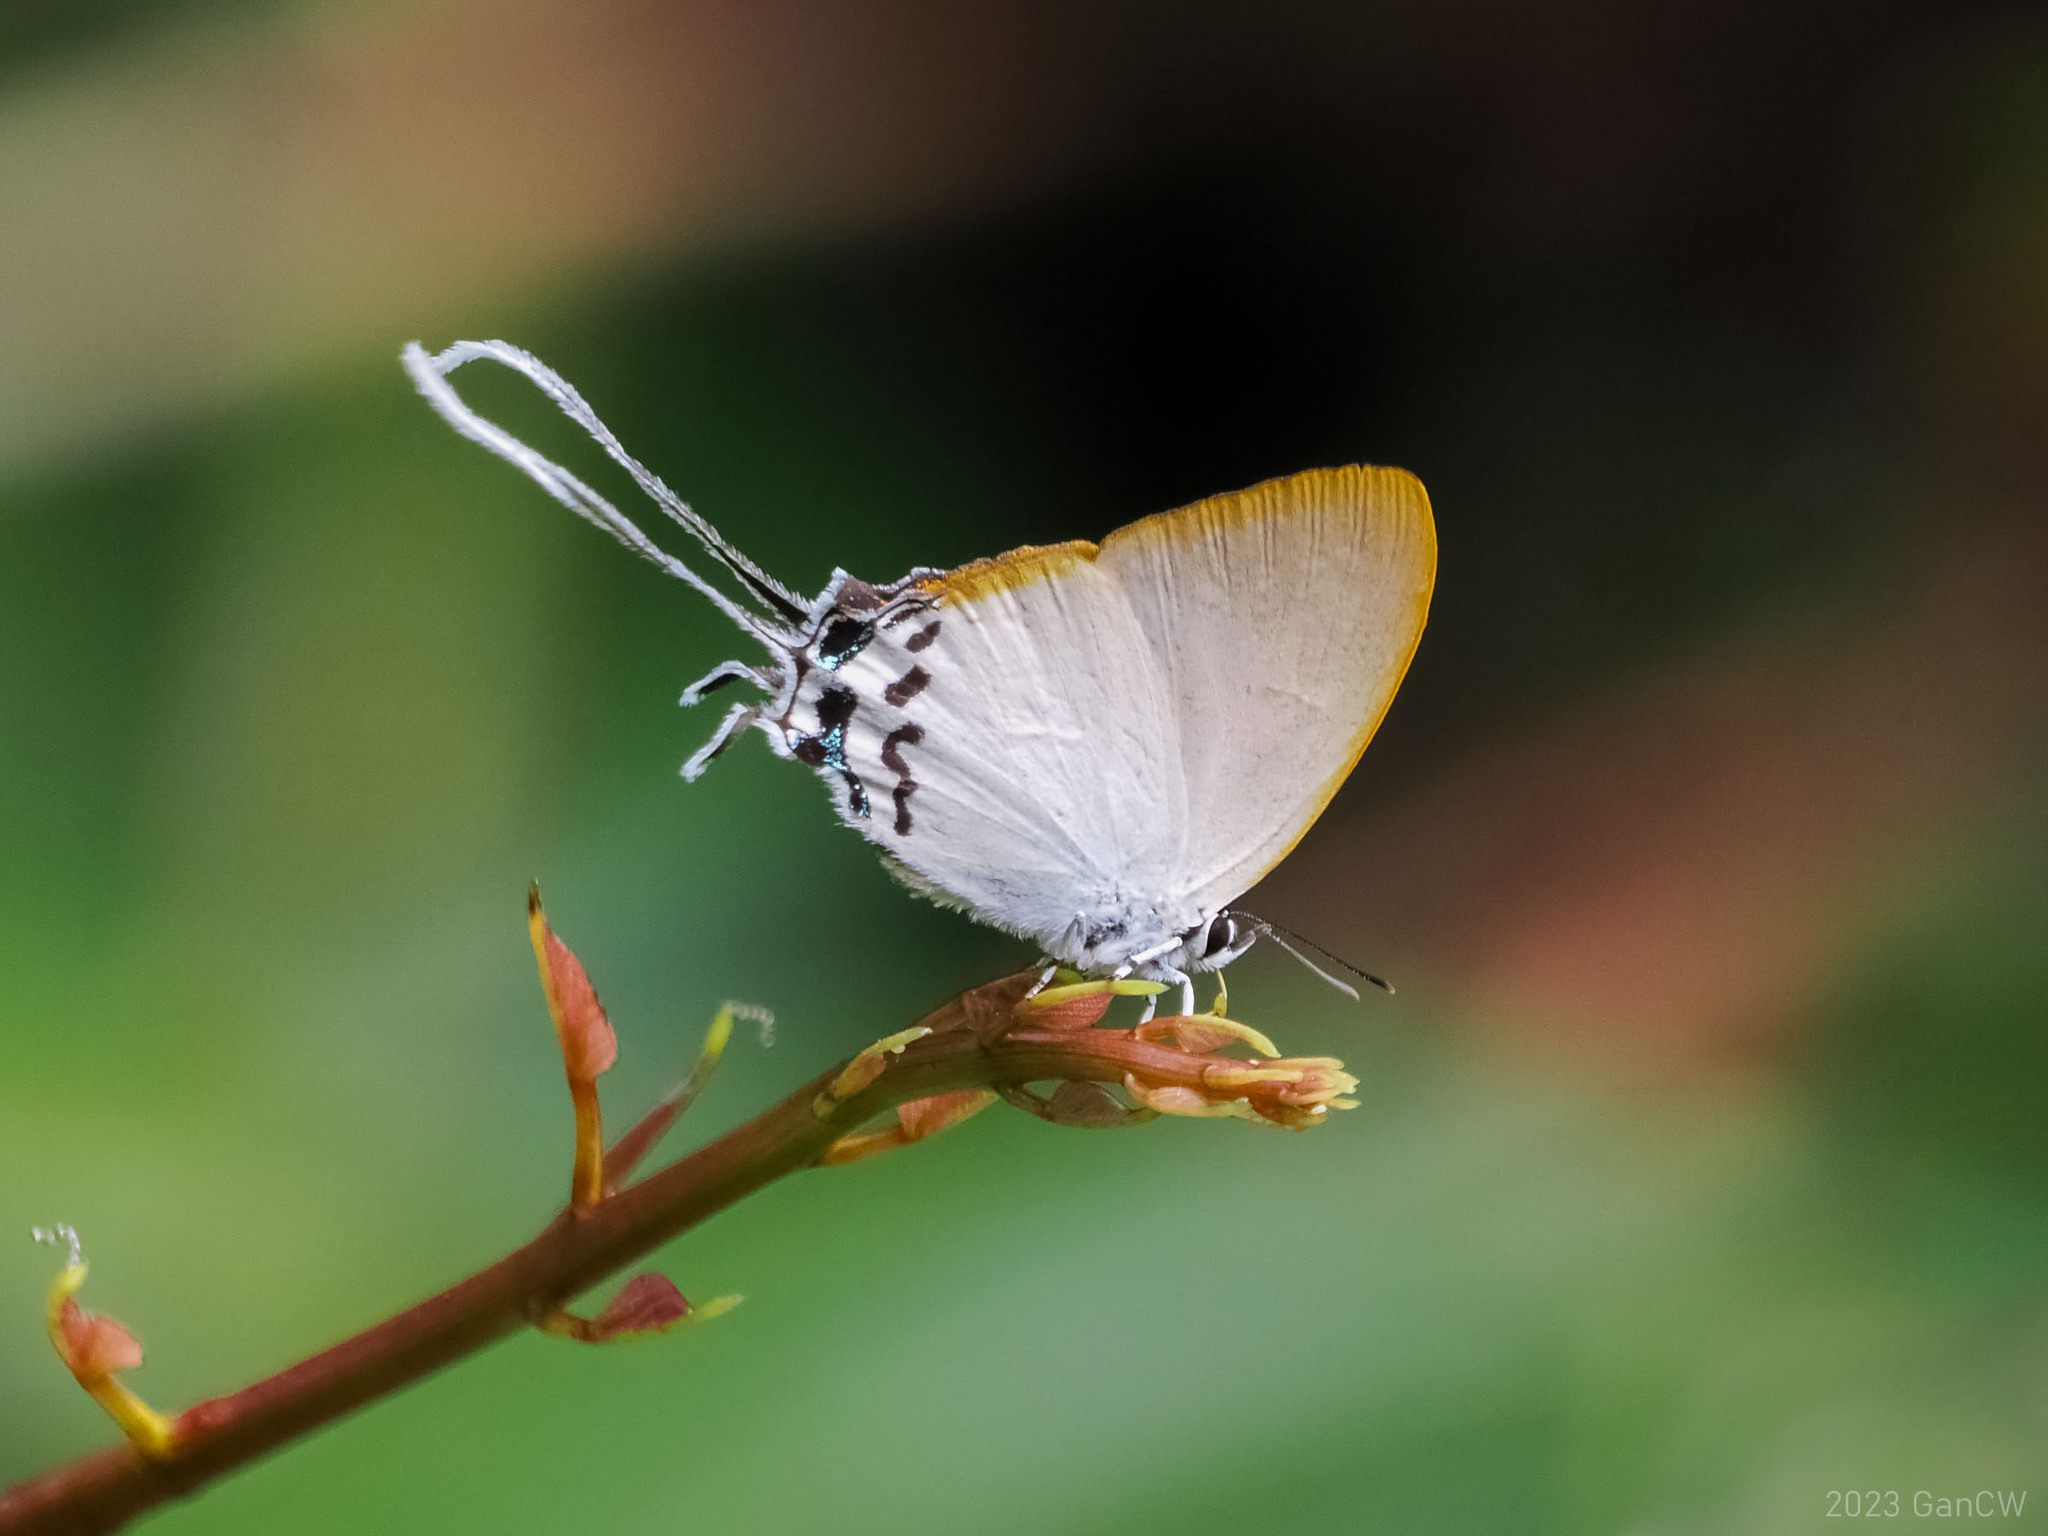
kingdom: Animalia
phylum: Arthropoda
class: Insecta
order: Lepidoptera
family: Lycaenidae
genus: Cheritra
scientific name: Cheritra orpheus
